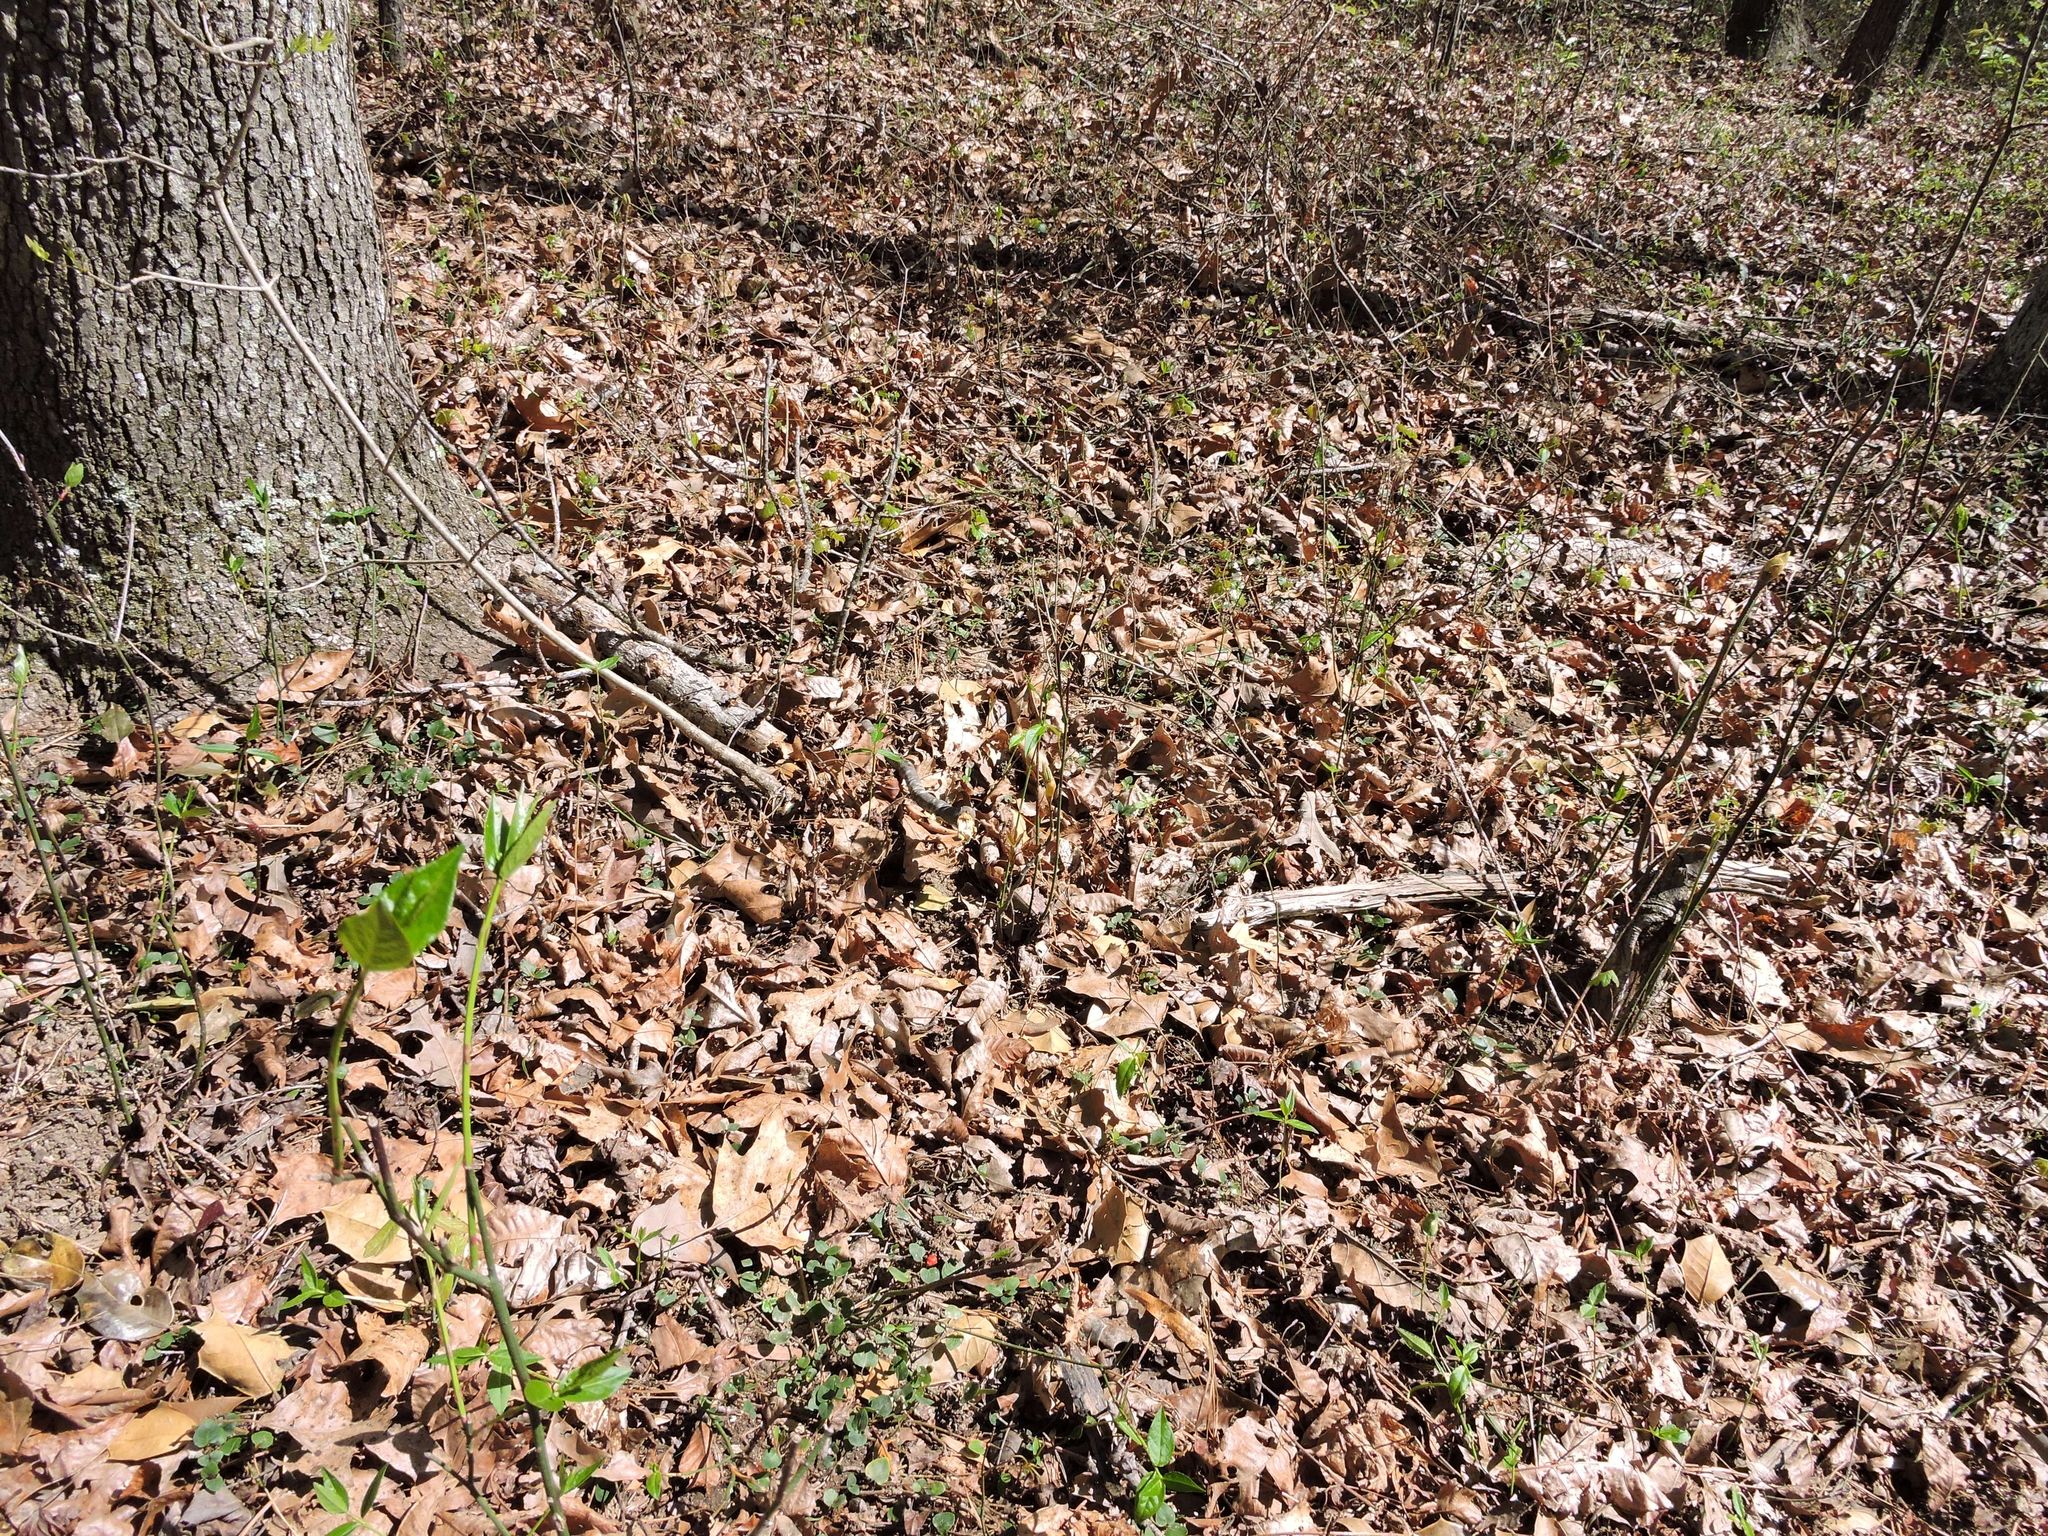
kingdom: Plantae
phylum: Tracheophyta
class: Magnoliopsida
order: Gentianales
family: Rubiaceae
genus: Mitchella
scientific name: Mitchella repens
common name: Partridge-berry
